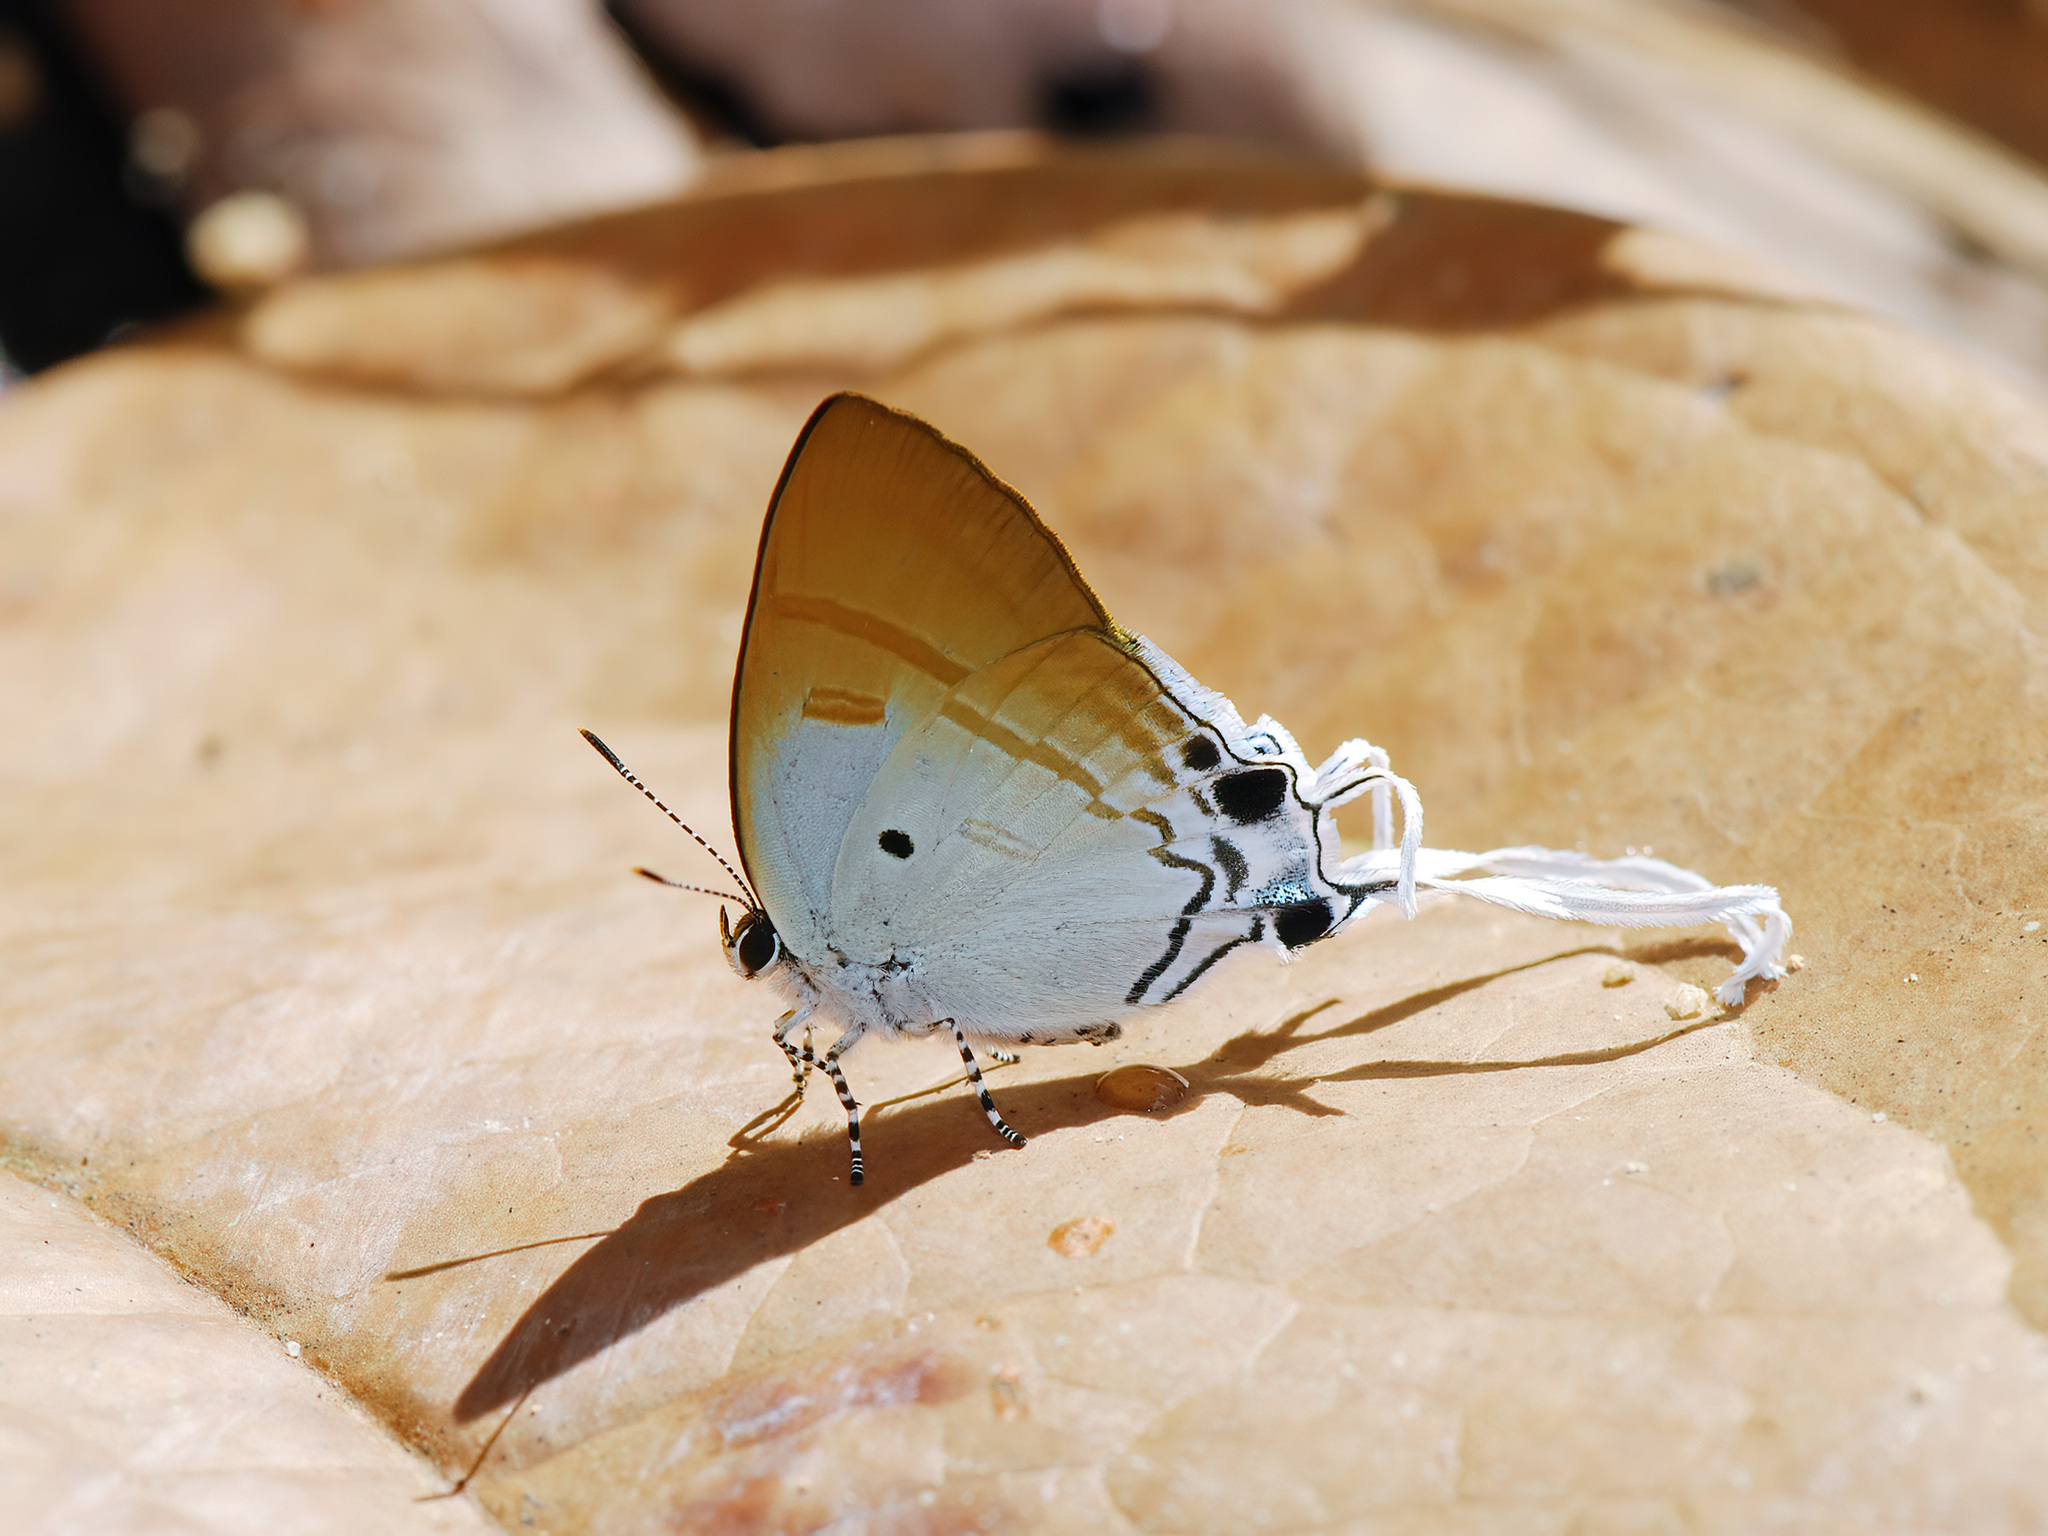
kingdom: Animalia
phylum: Arthropoda
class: Insecta
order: Lepidoptera
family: Lycaenidae
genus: Zeltus
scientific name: Zeltus amasa
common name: Fluffy tit
